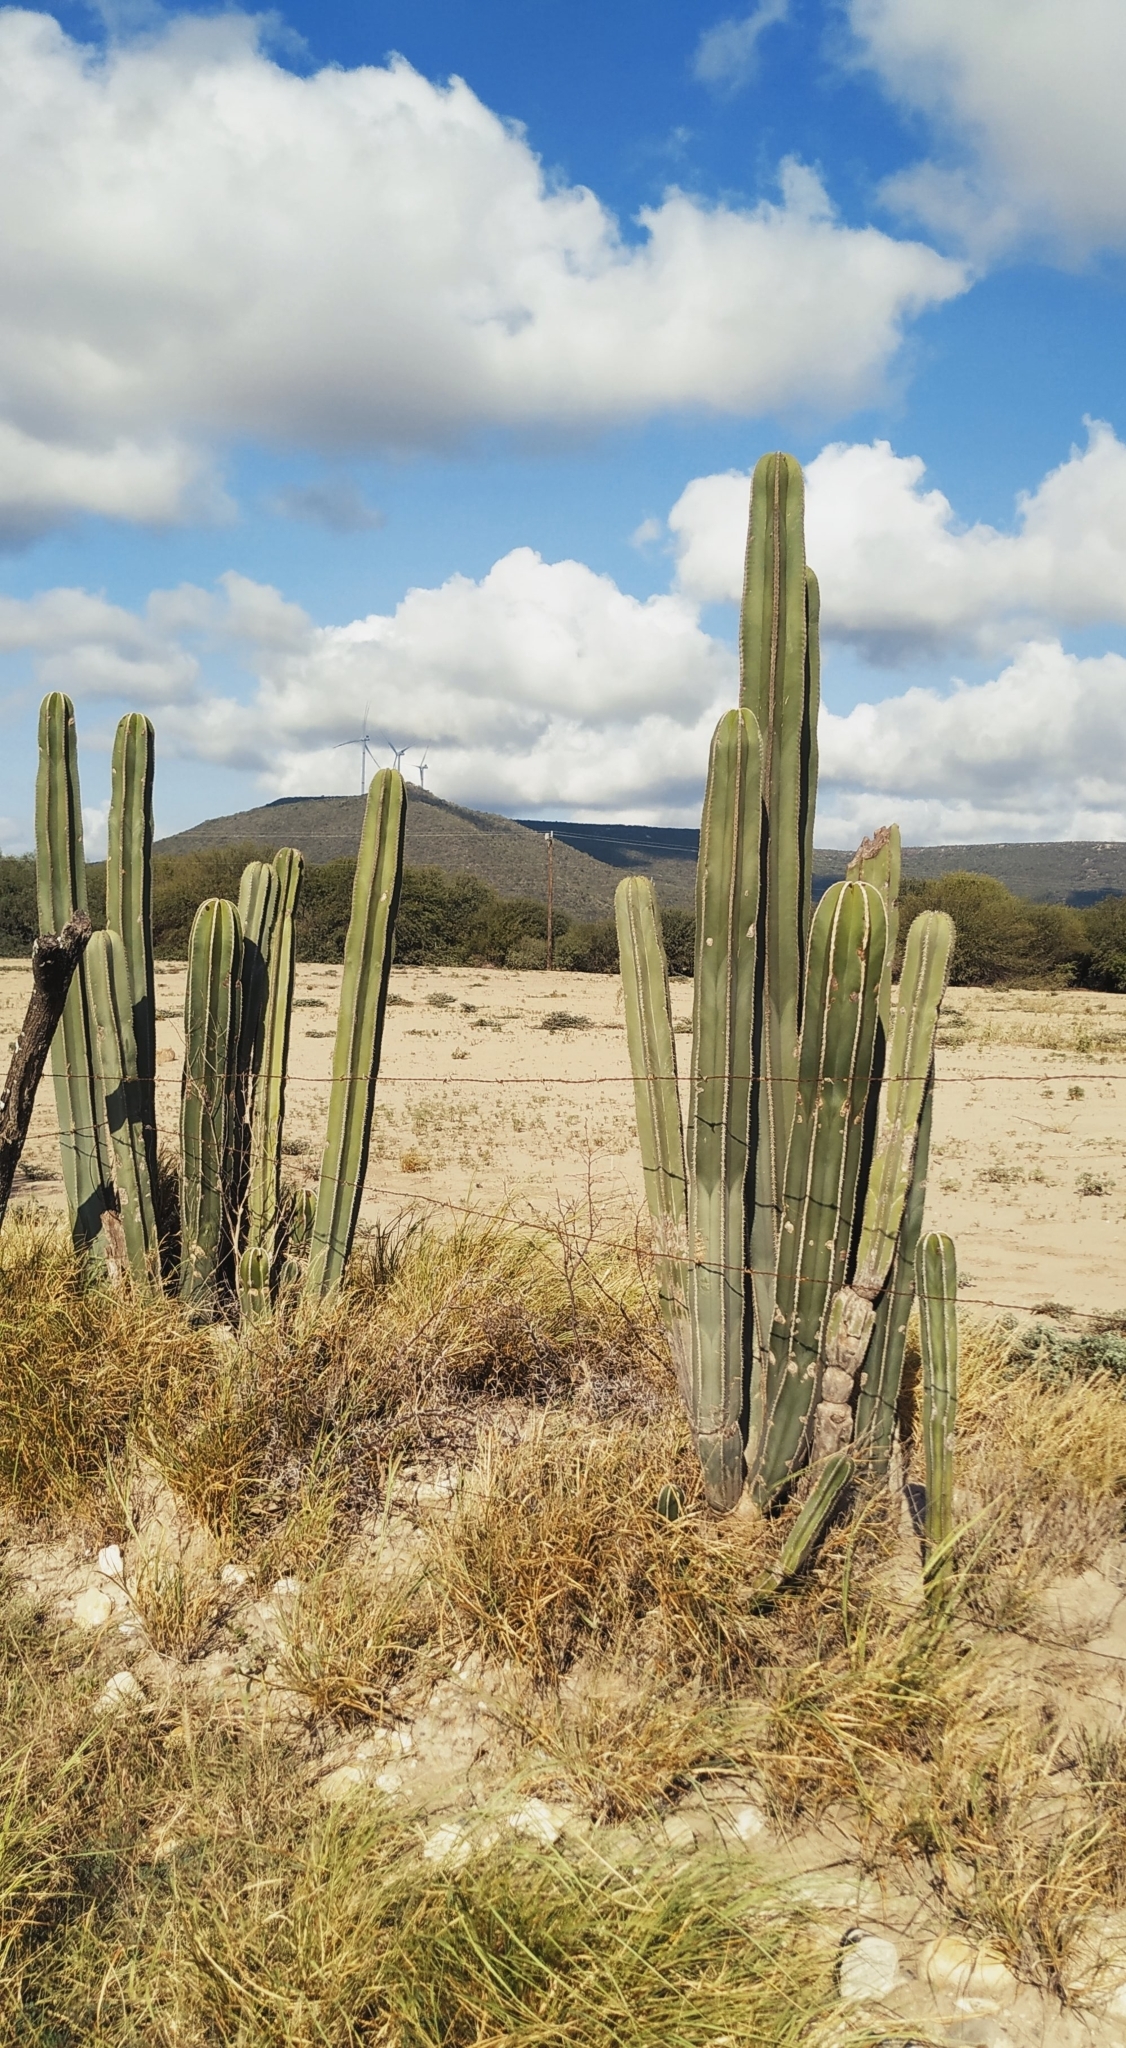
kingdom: Plantae
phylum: Tracheophyta
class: Magnoliopsida
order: Caryophyllales
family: Cactaceae
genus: Marginatocereus
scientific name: Marginatocereus marginatus
